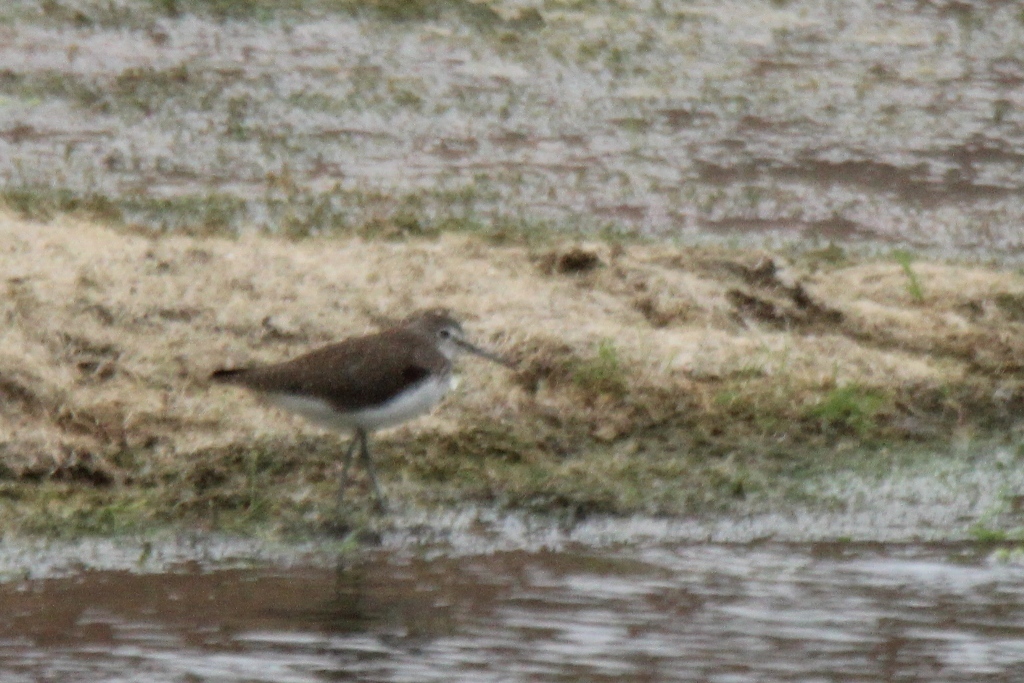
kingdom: Animalia
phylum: Chordata
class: Aves
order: Charadriiformes
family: Scolopacidae
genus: Tringa
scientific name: Tringa ochropus
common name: Green sandpiper
